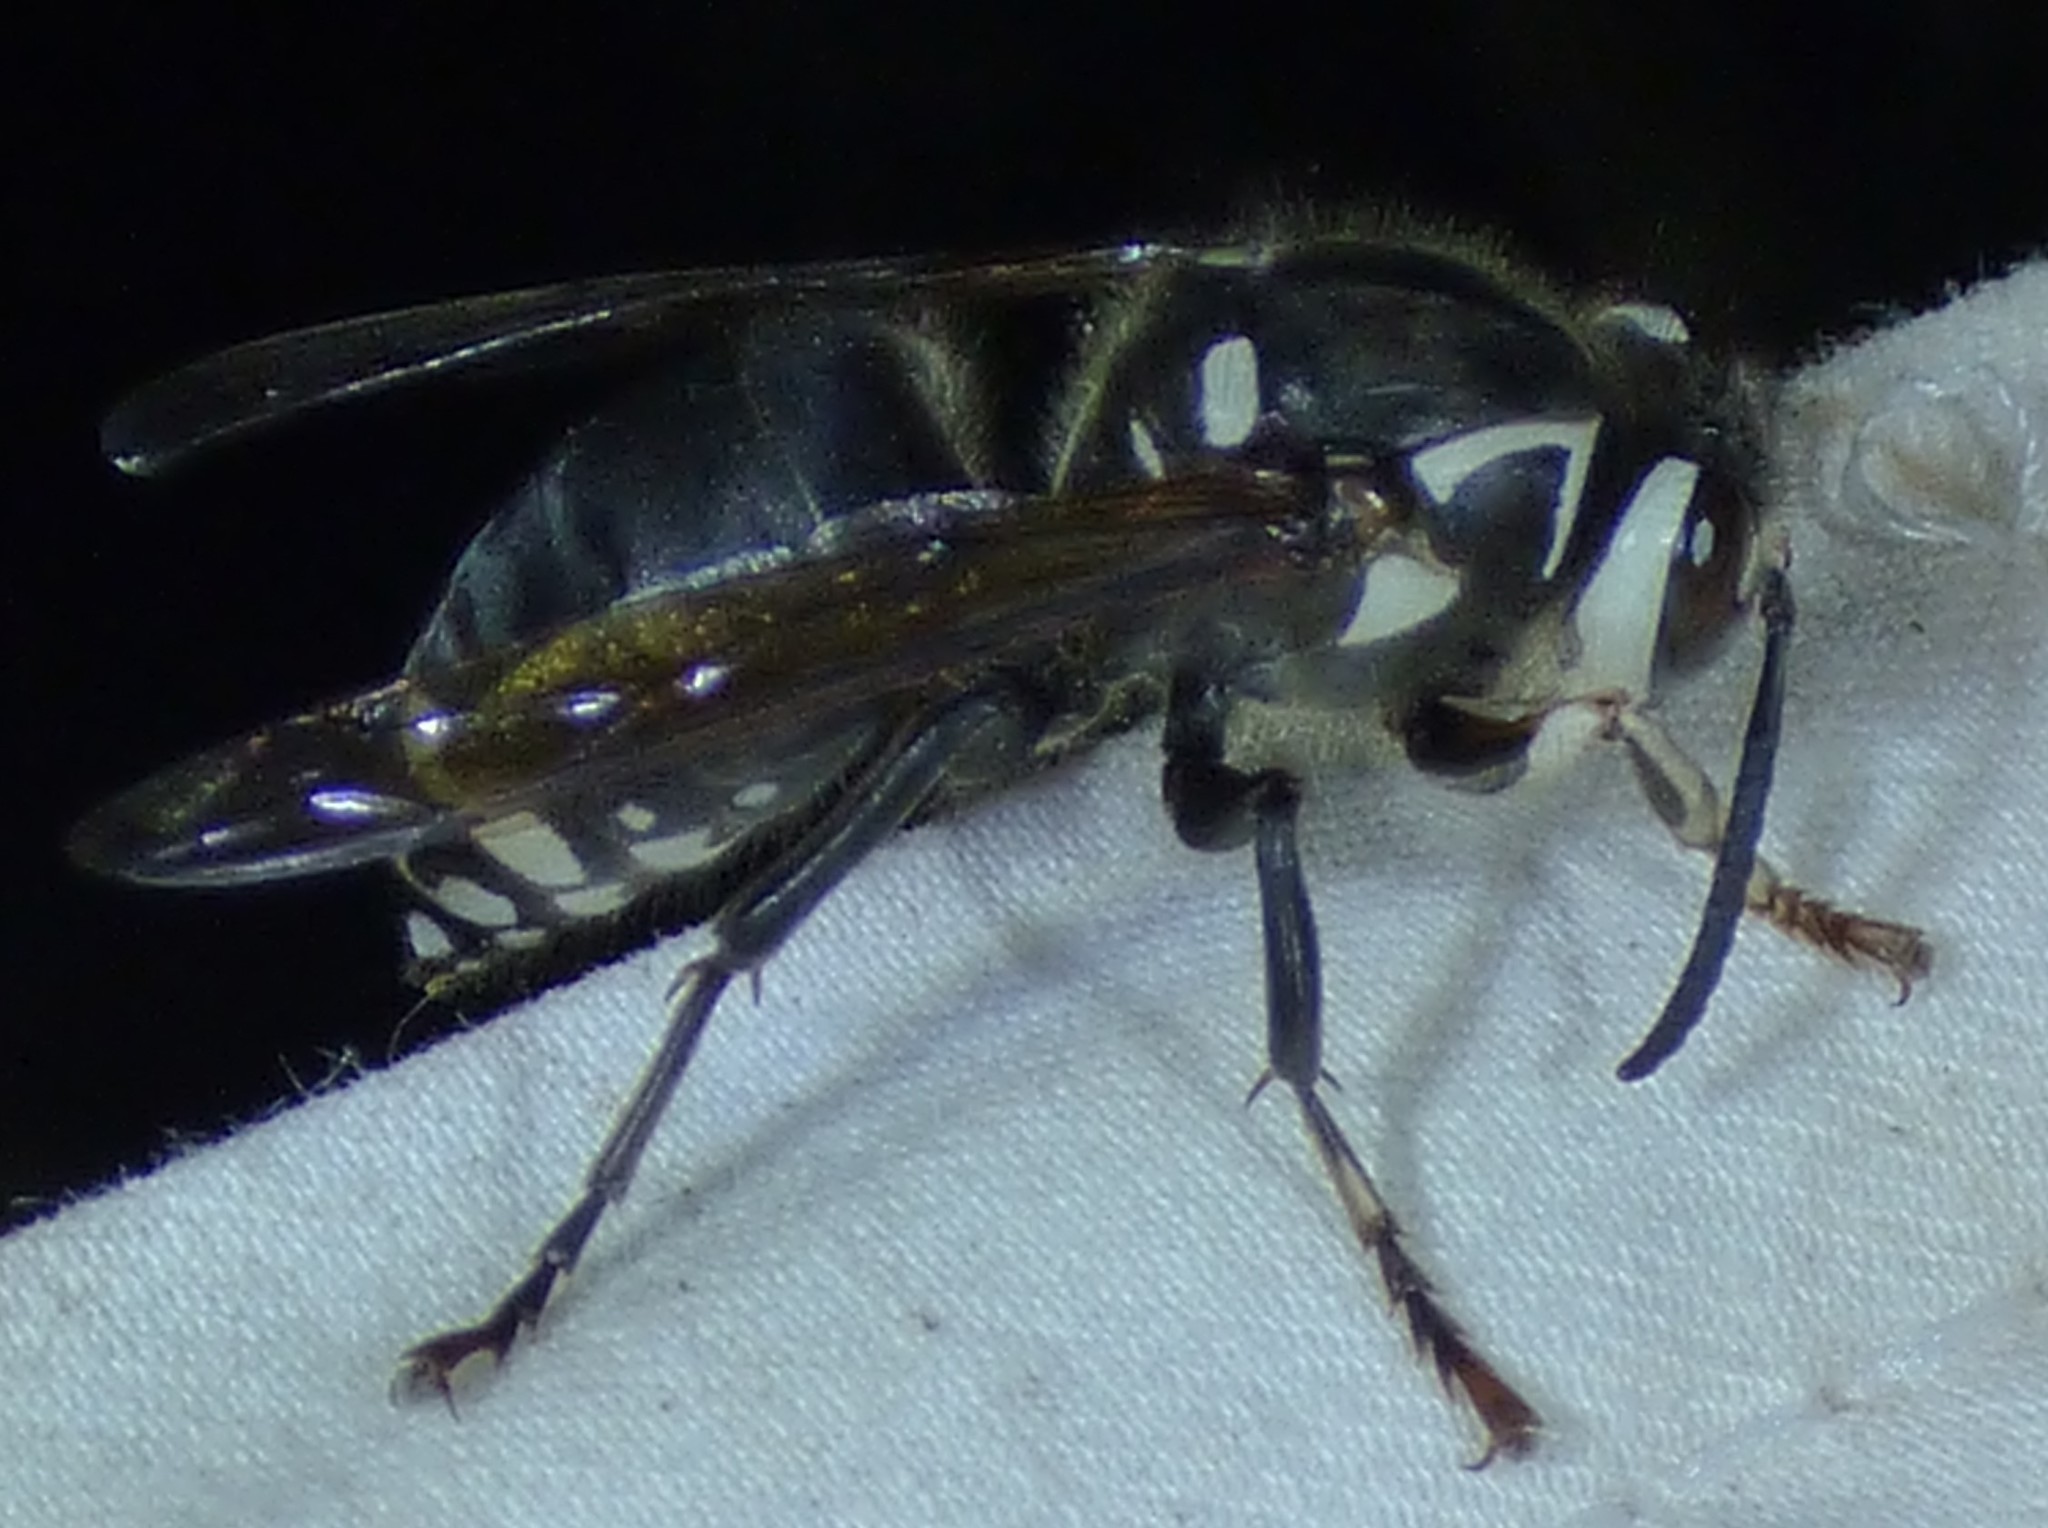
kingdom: Animalia
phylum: Arthropoda
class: Insecta
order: Hymenoptera
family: Vespidae
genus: Dolichovespula
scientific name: Dolichovespula maculata
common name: Bald-faced hornet
